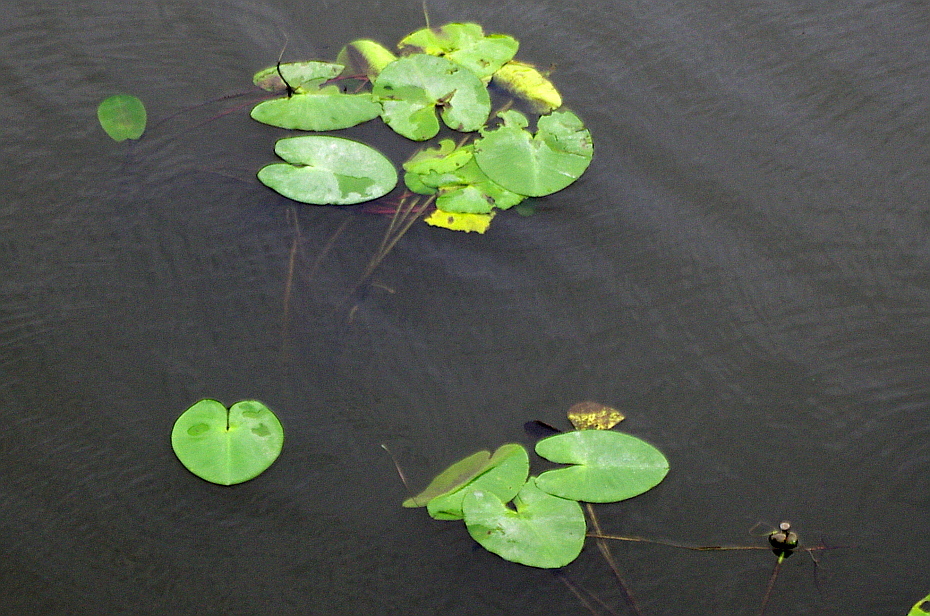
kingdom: Plantae
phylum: Tracheophyta
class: Magnoliopsida
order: Nymphaeales
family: Nymphaeaceae
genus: Nuphar
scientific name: Nuphar lutea
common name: Yellow water-lily
